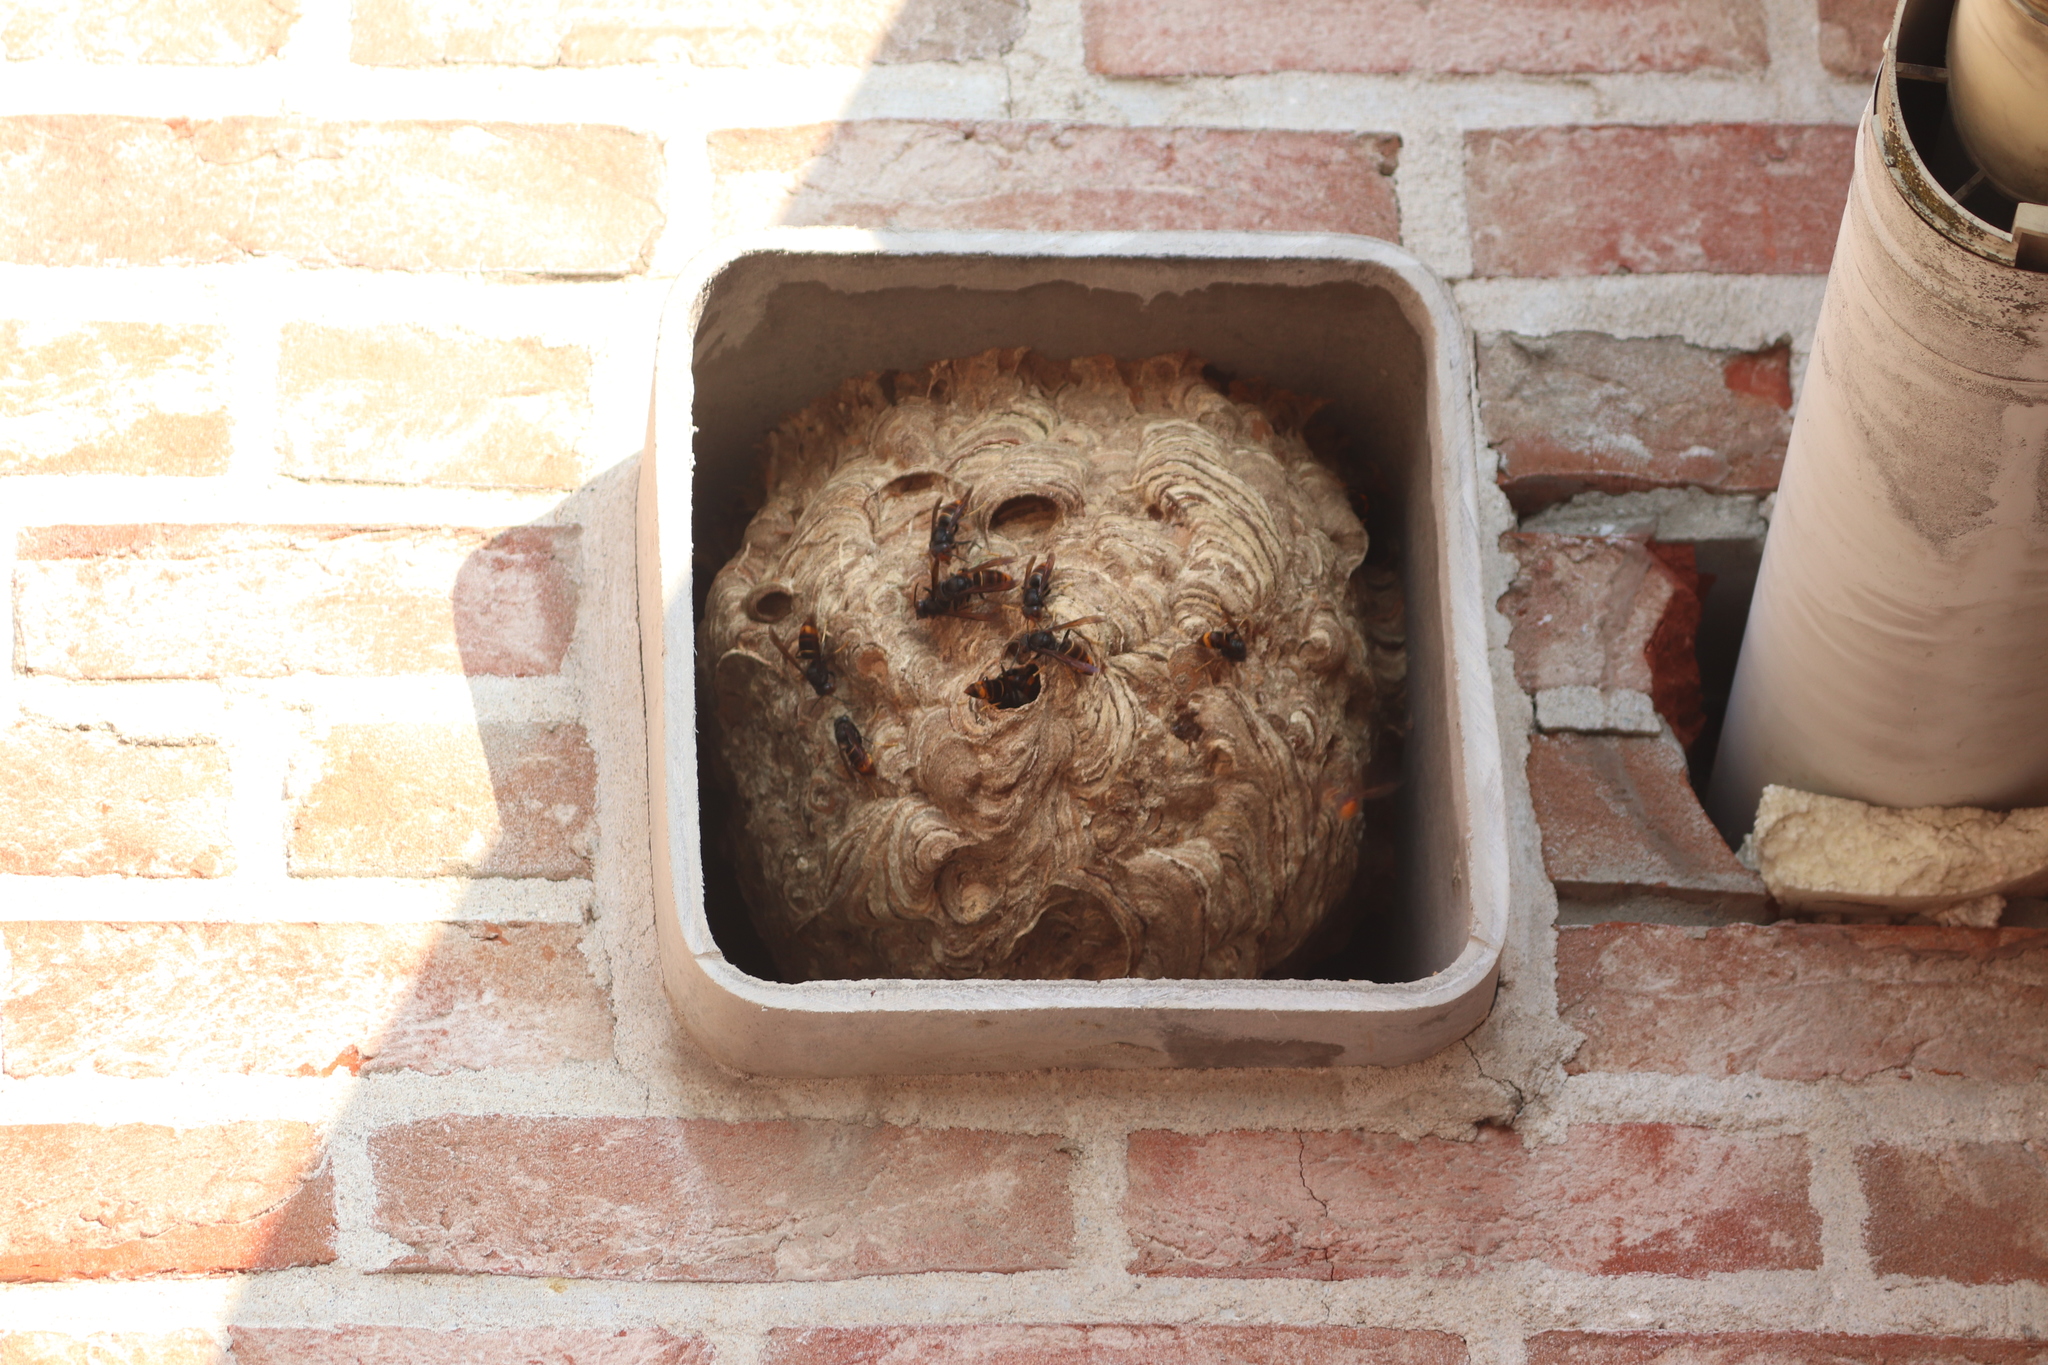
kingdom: Animalia
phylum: Arthropoda
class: Insecta
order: Hymenoptera
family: Vespidae
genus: Vespa
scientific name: Vespa velutina
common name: Asian hornet
